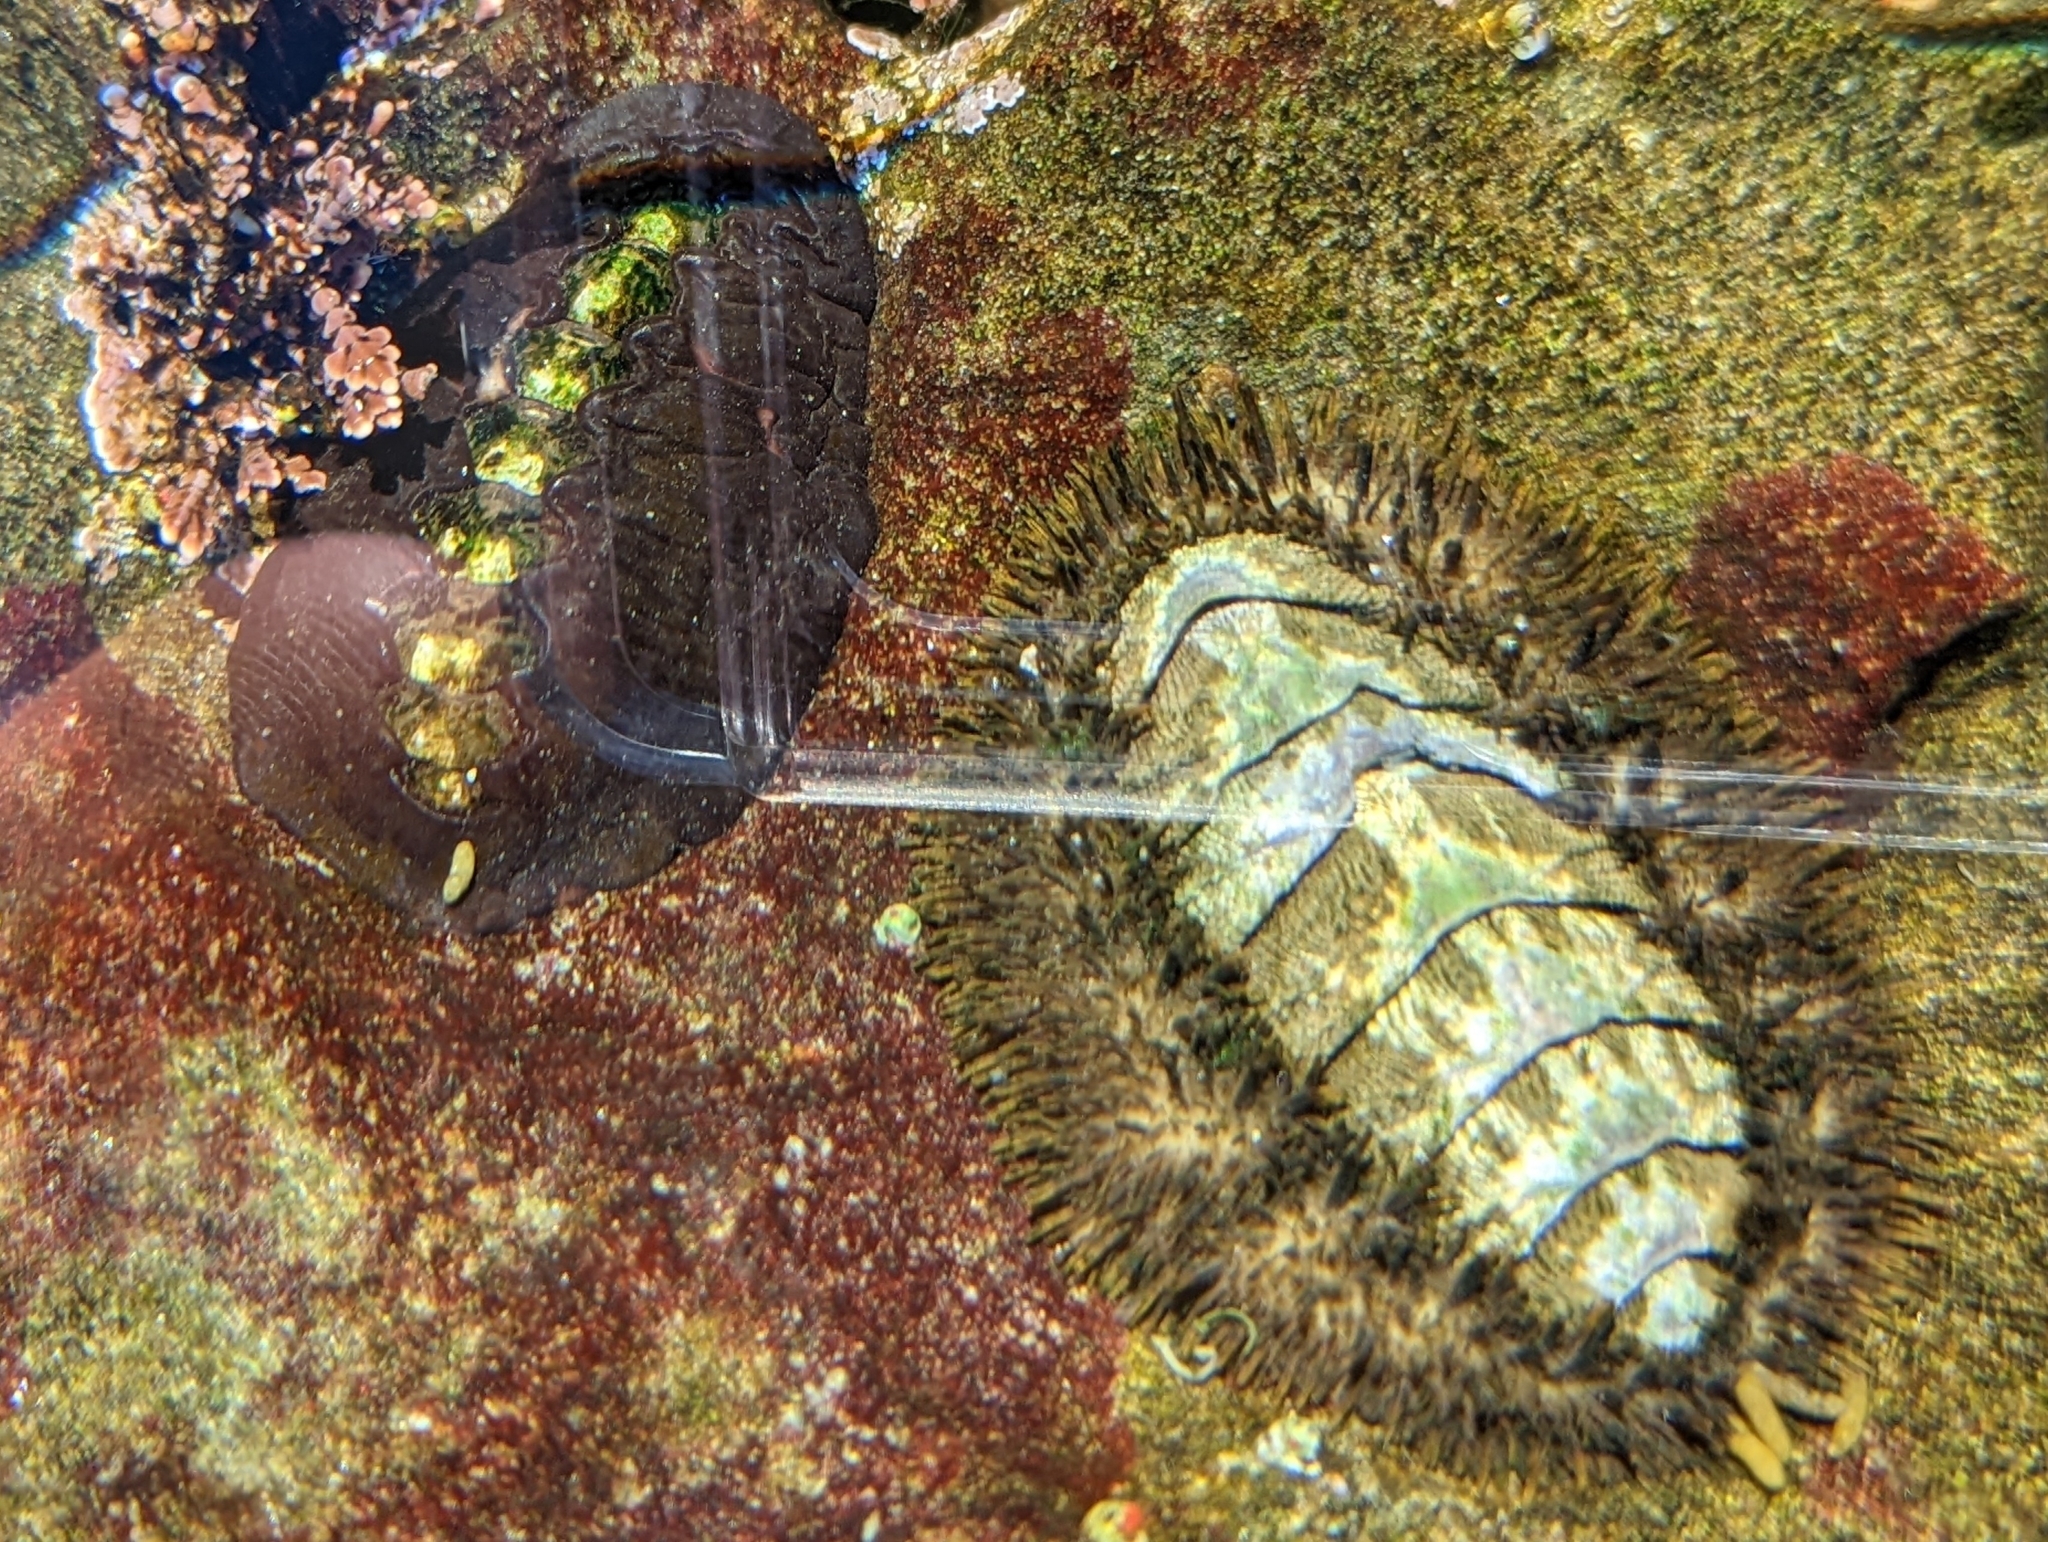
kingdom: Animalia
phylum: Mollusca
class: Polyplacophora
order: Chitonida
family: Mopaliidae
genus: Katharina
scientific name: Katharina tunicata
